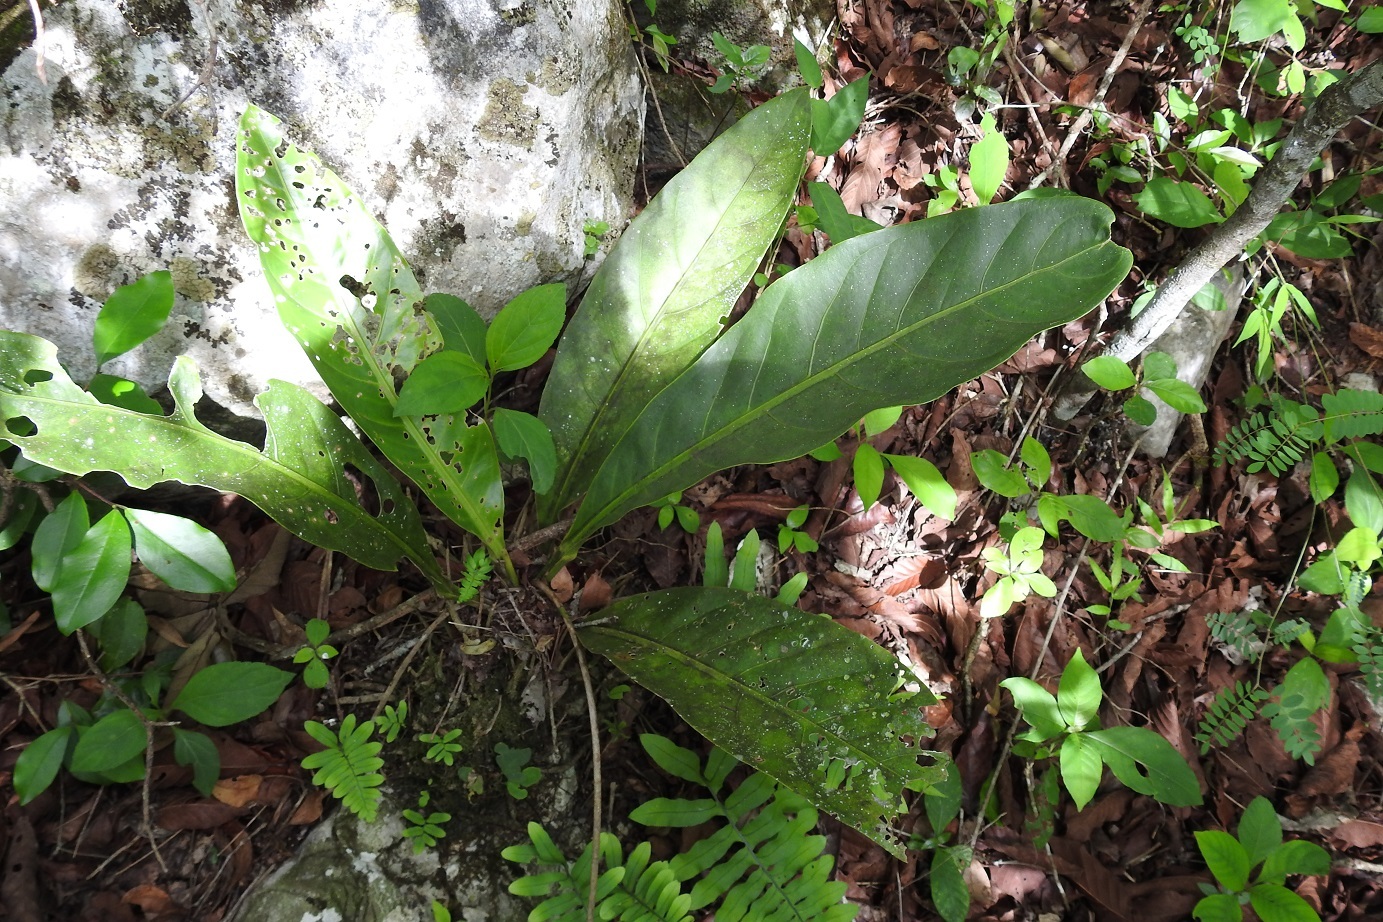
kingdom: Plantae
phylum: Tracheophyta
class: Liliopsida
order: Alismatales
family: Araceae
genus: Anthurium
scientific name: Anthurium schlechtendalii
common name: Laceleaf
